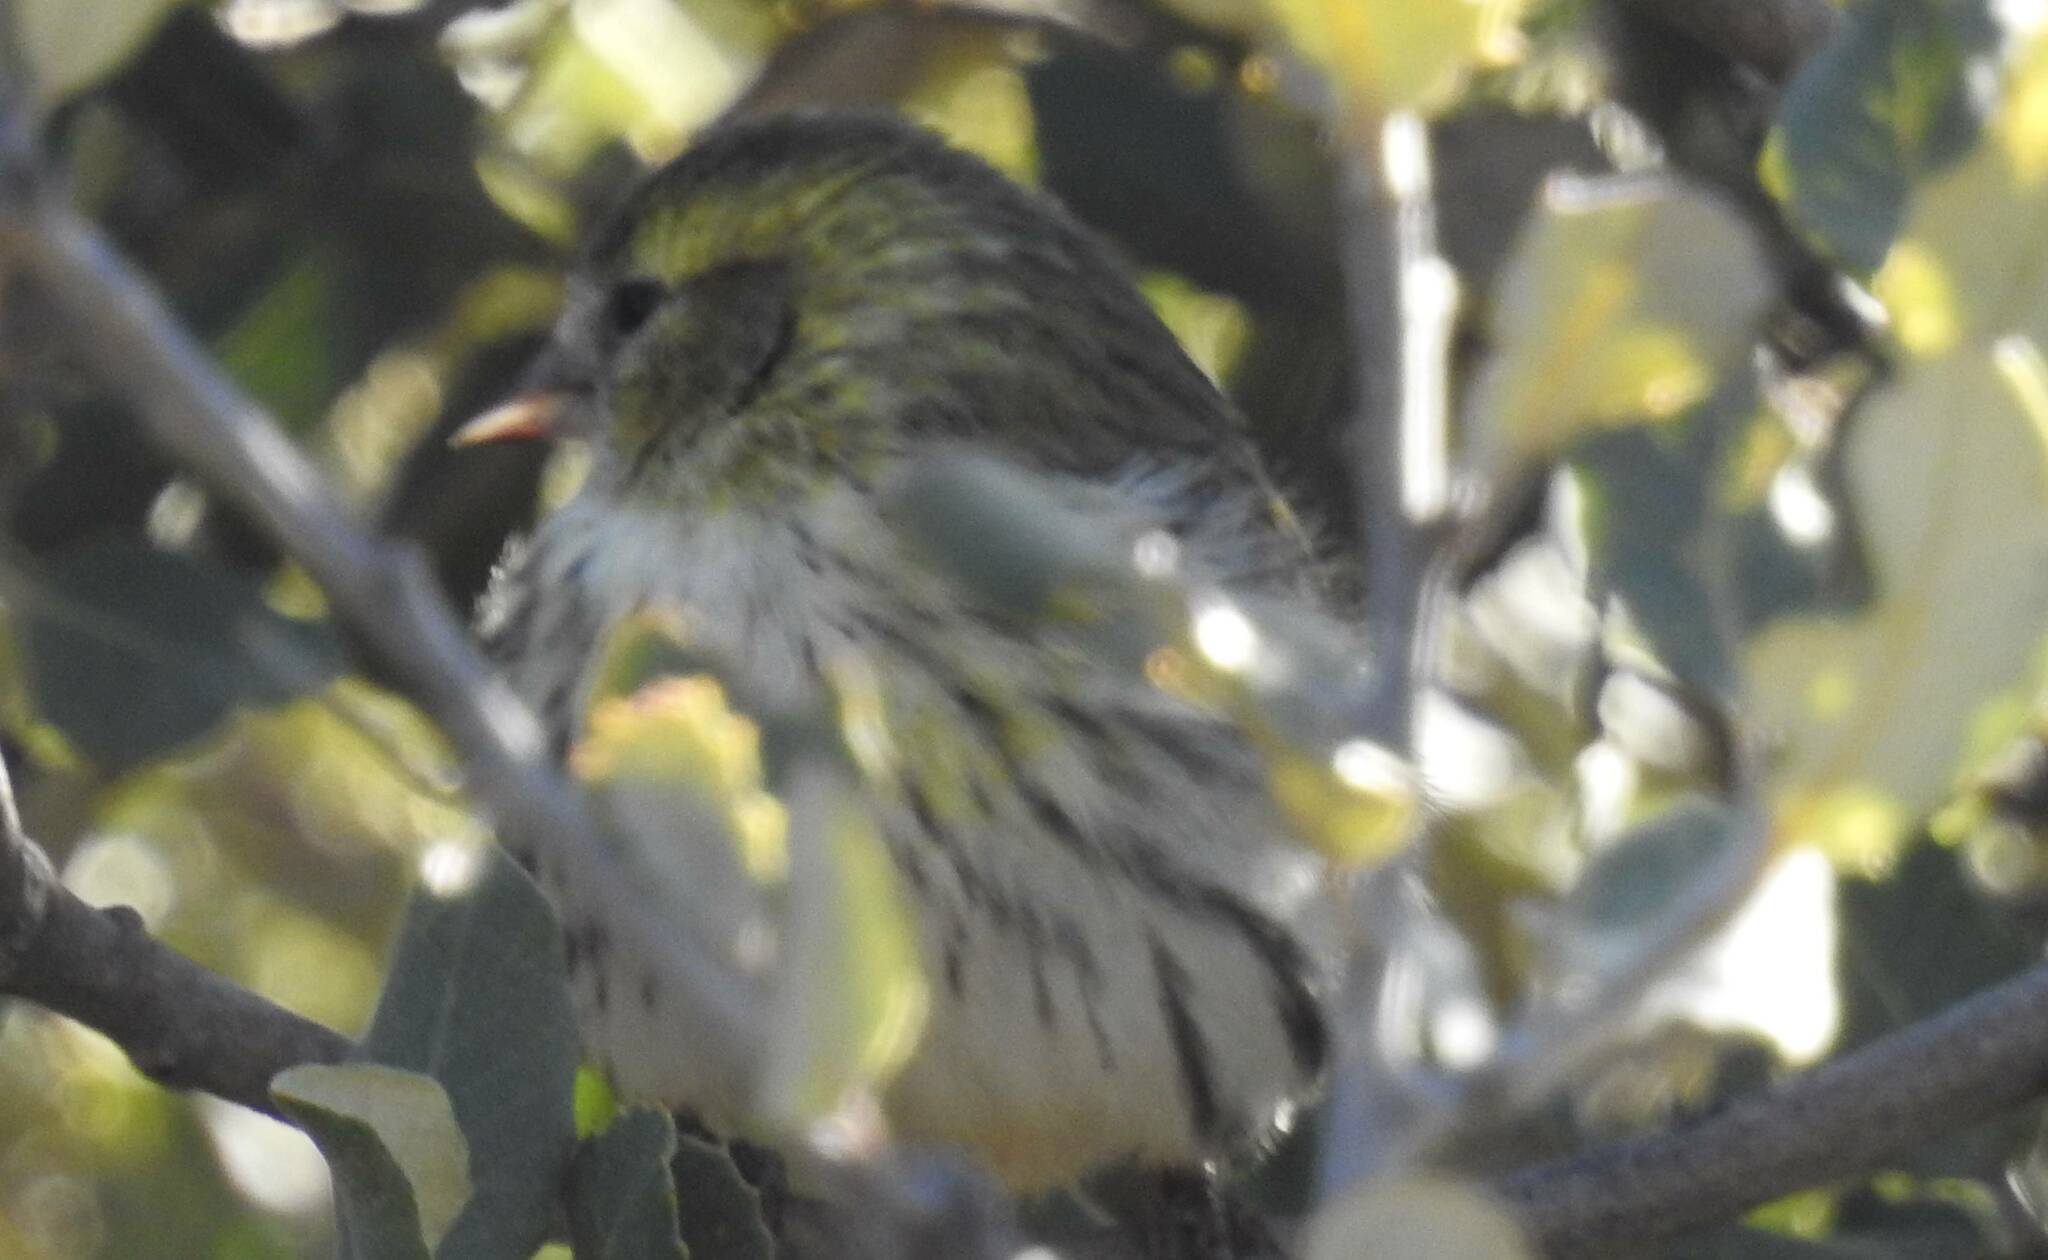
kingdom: Animalia
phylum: Chordata
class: Aves
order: Passeriformes
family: Fringillidae
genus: Spinus
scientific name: Spinus spinus
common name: Eurasian siskin
